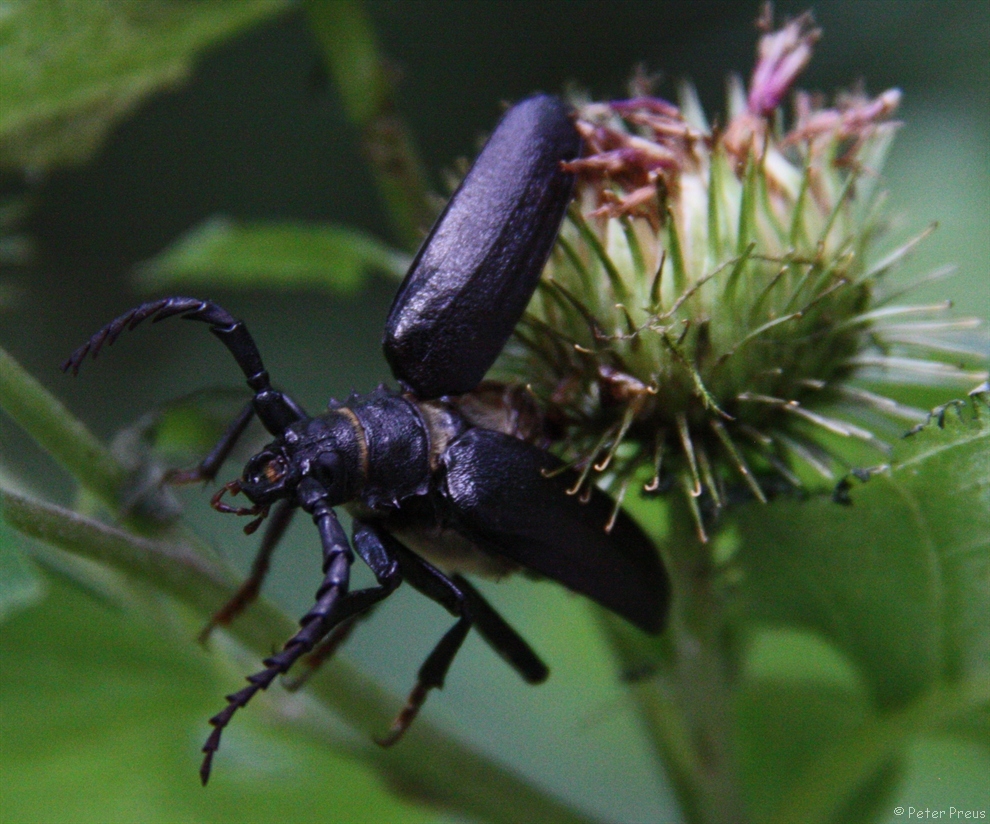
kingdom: Animalia
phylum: Arthropoda
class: Insecta
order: Coleoptera
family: Cerambycidae
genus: Prionus
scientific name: Prionus coriarius
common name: Tanner beetle
